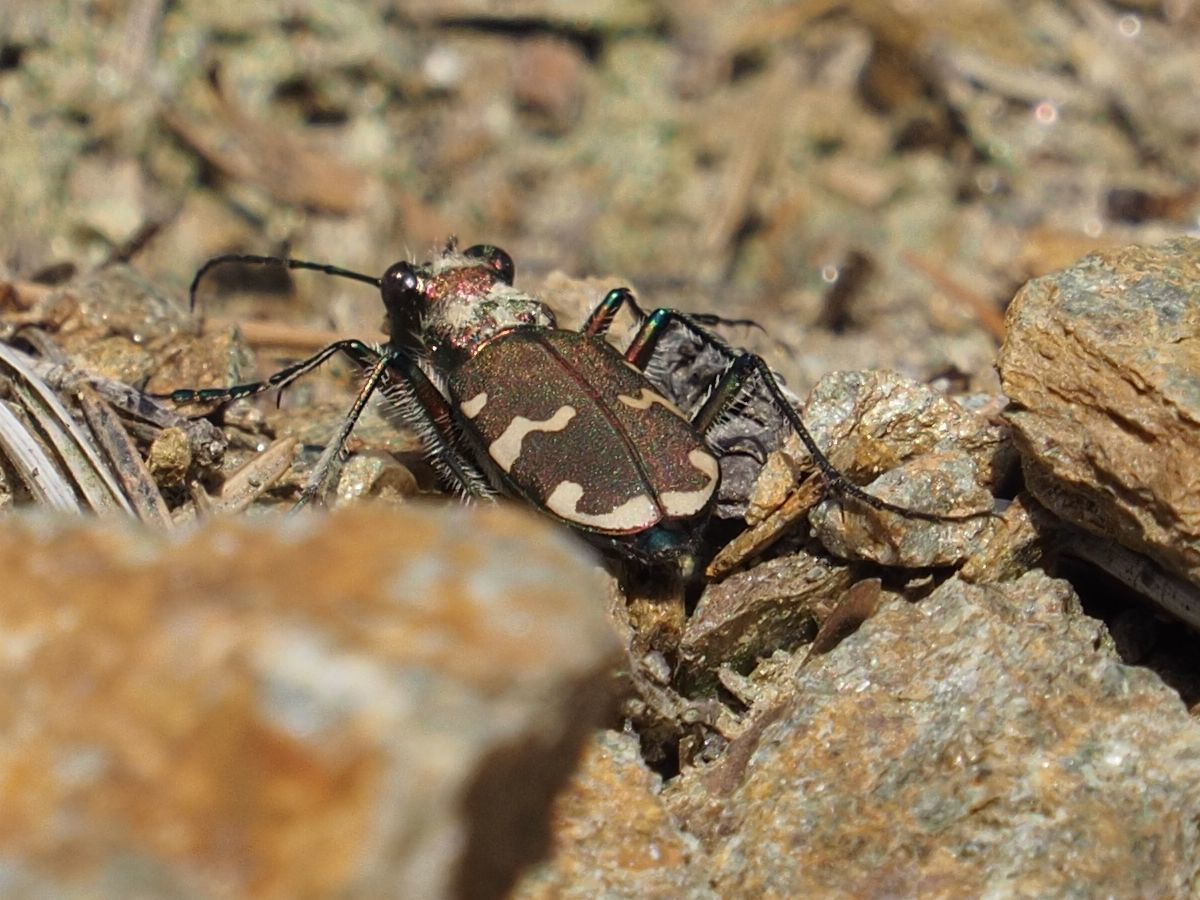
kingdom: Animalia
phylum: Arthropoda
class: Insecta
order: Coleoptera
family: Carabidae
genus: Cicindela
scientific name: Cicindela sylvicola
